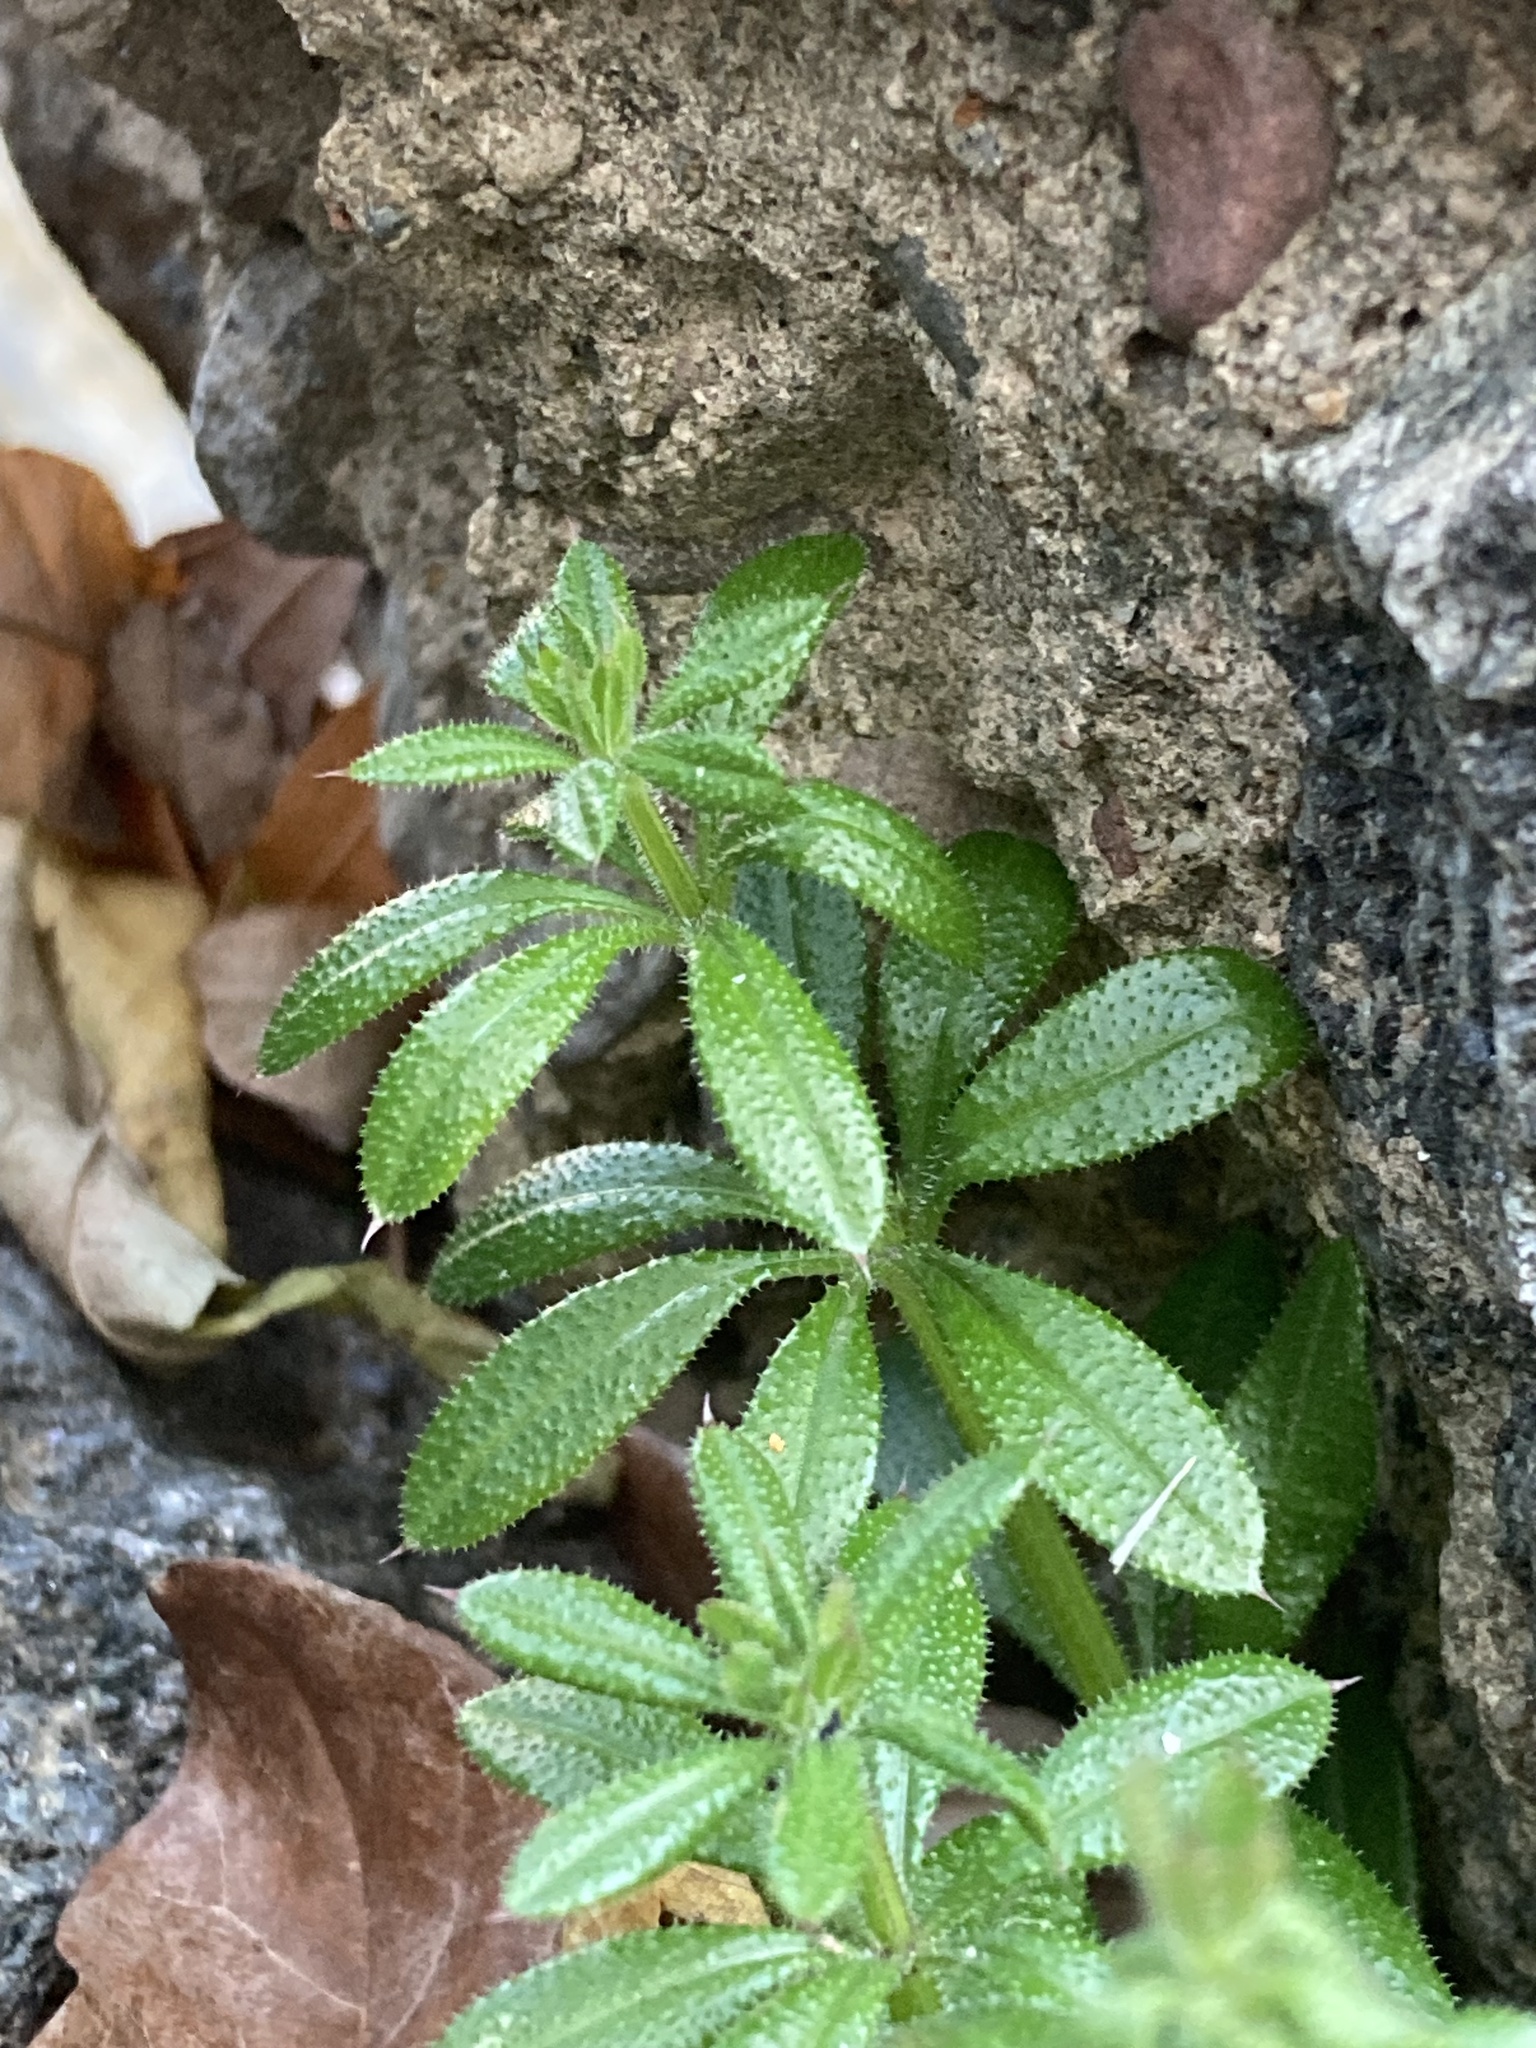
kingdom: Plantae
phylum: Tracheophyta
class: Magnoliopsida
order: Gentianales
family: Rubiaceae
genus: Galium
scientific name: Galium aparine
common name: Cleavers
